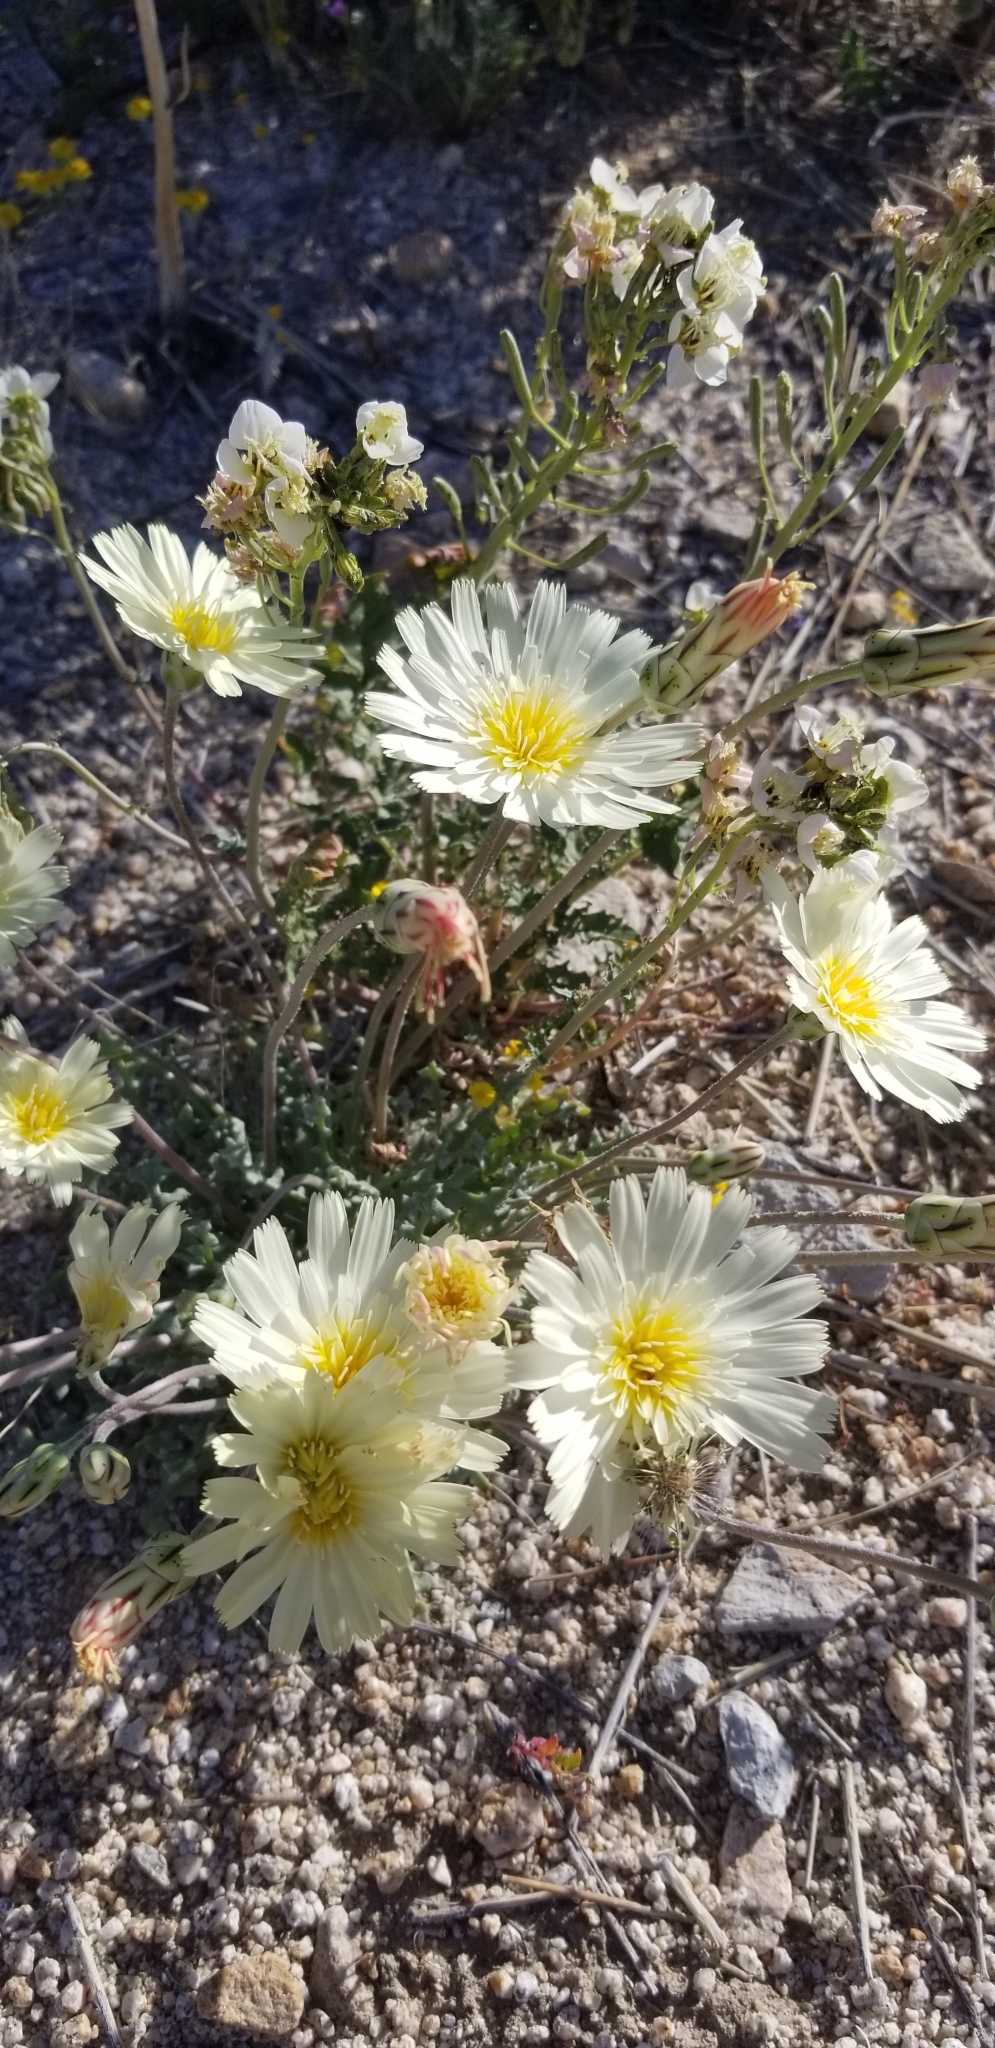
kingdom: Plantae
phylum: Tracheophyta
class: Magnoliopsida
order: Asterales
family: Asteraceae
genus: Anisocoma
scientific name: Anisocoma acaulis
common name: Scalebud
